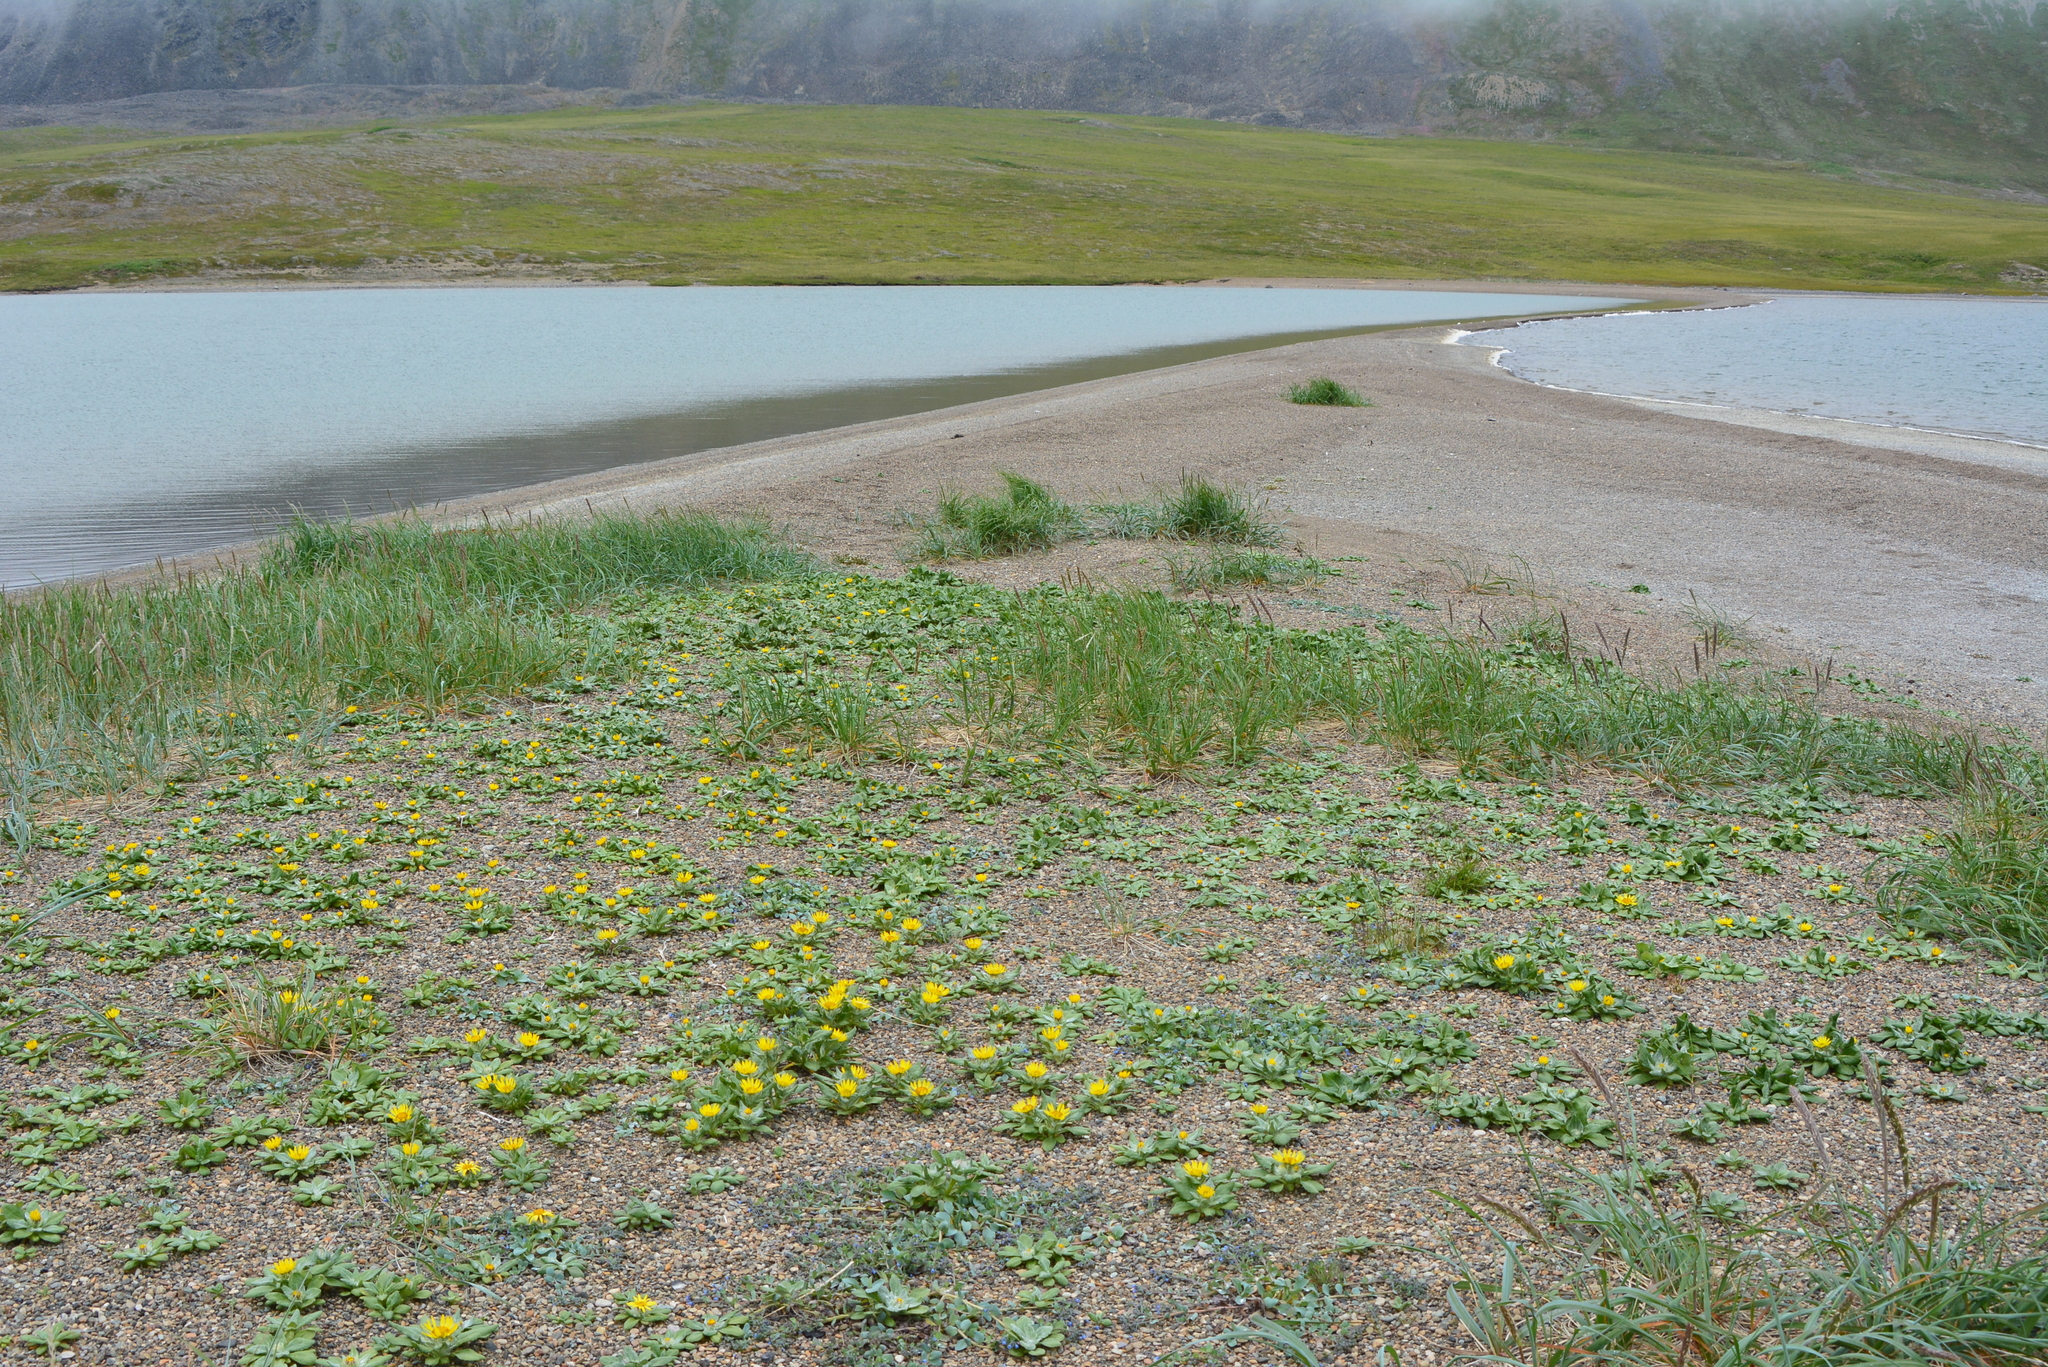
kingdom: Plantae
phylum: Tracheophyta
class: Magnoliopsida
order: Asterales
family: Asteraceae
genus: Jacobaea
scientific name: Jacobaea pseudoarnica
